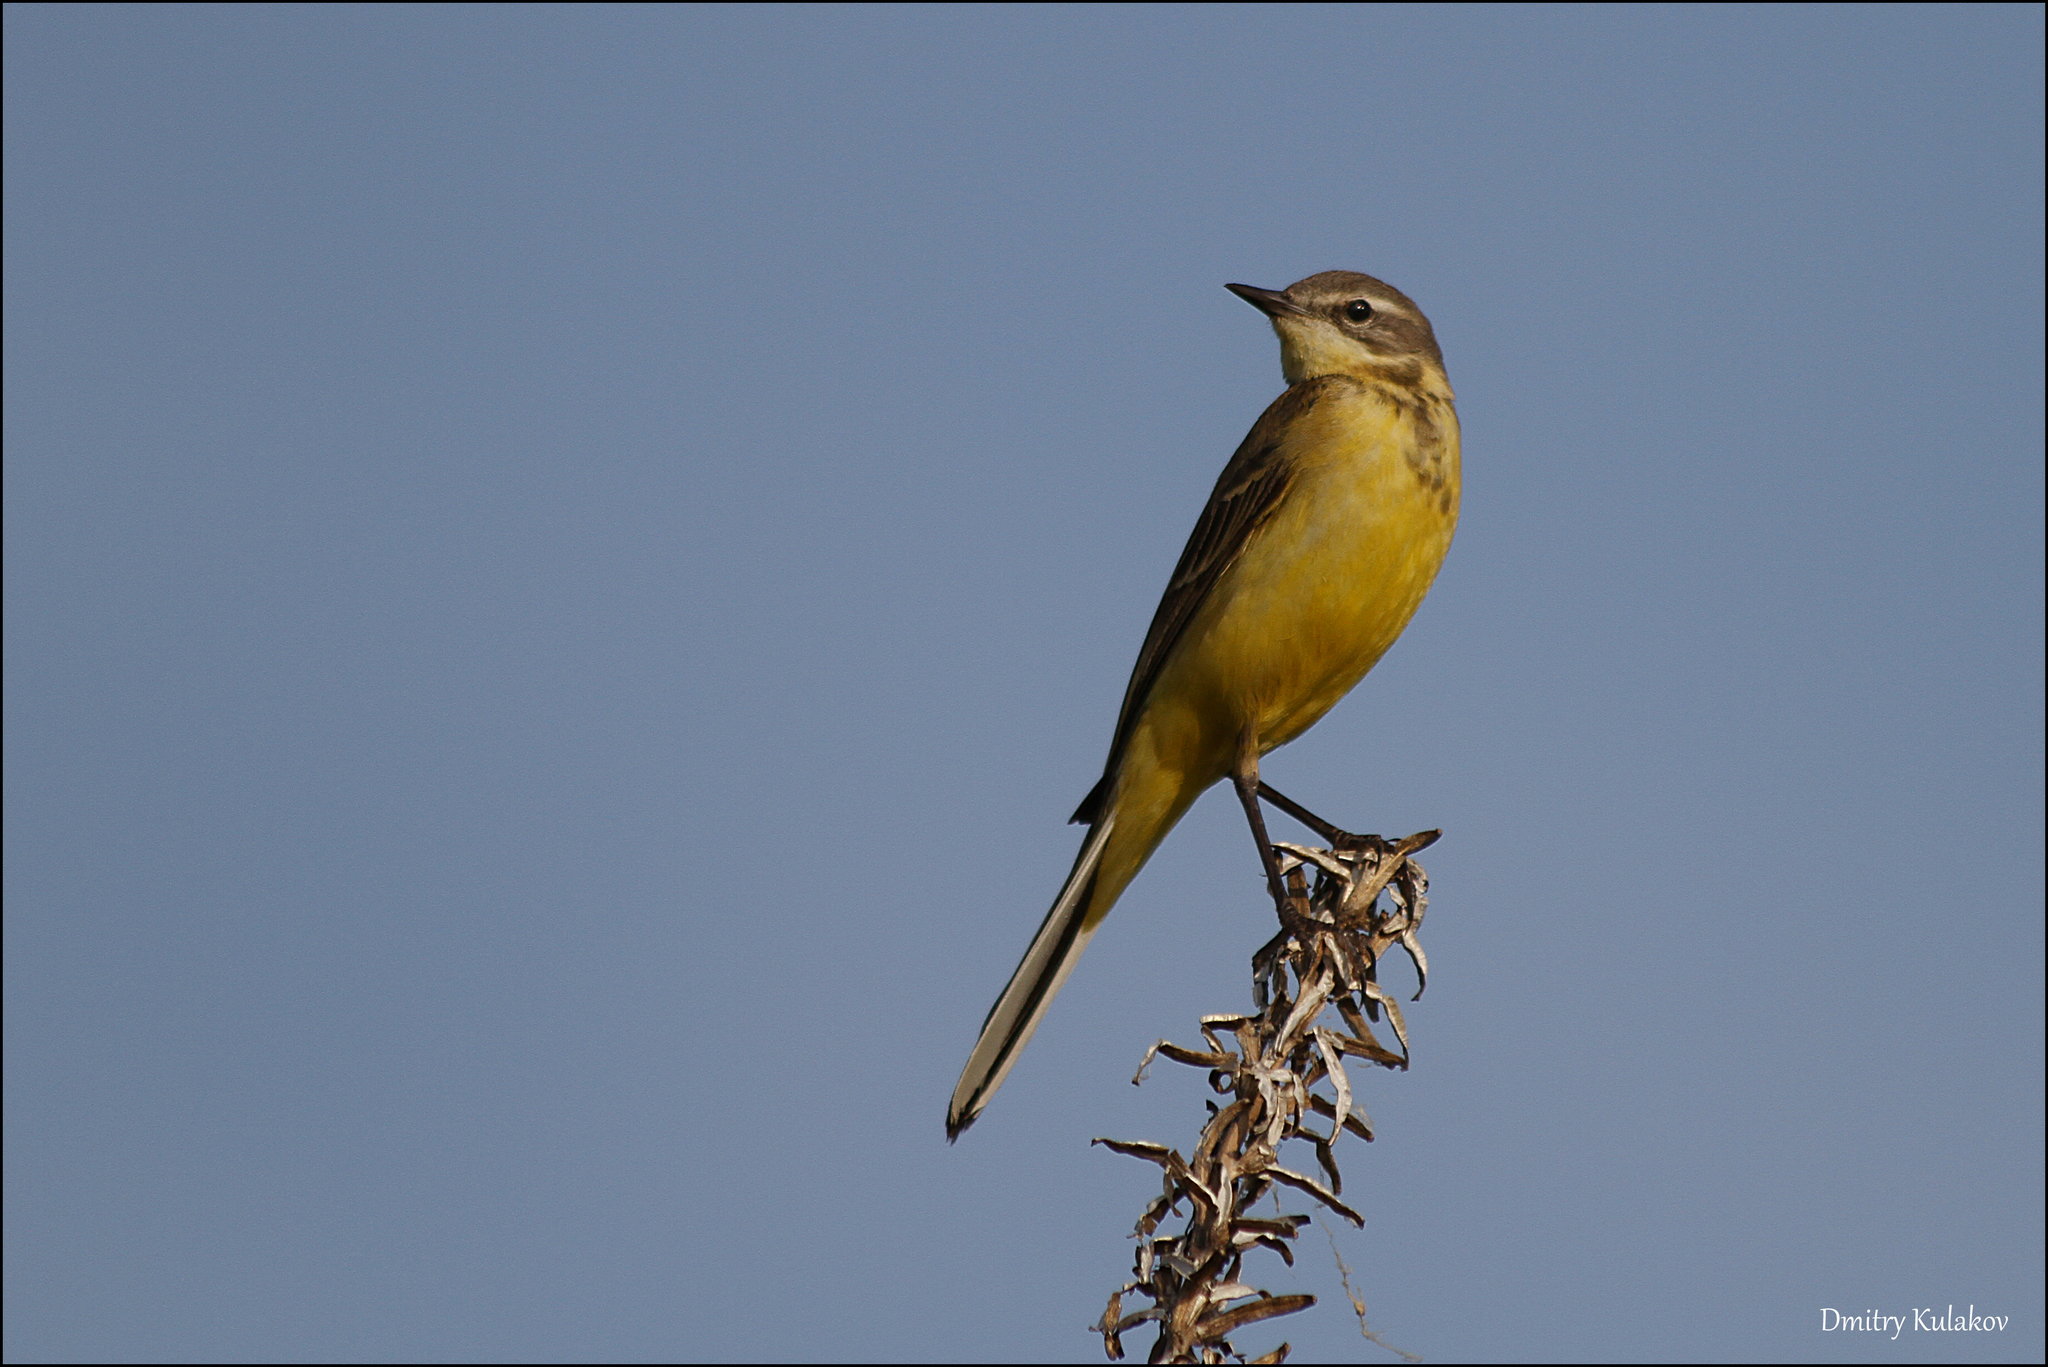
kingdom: Animalia
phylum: Chordata
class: Aves
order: Passeriformes
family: Motacillidae
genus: Motacilla
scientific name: Motacilla flava
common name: Western yellow wagtail
